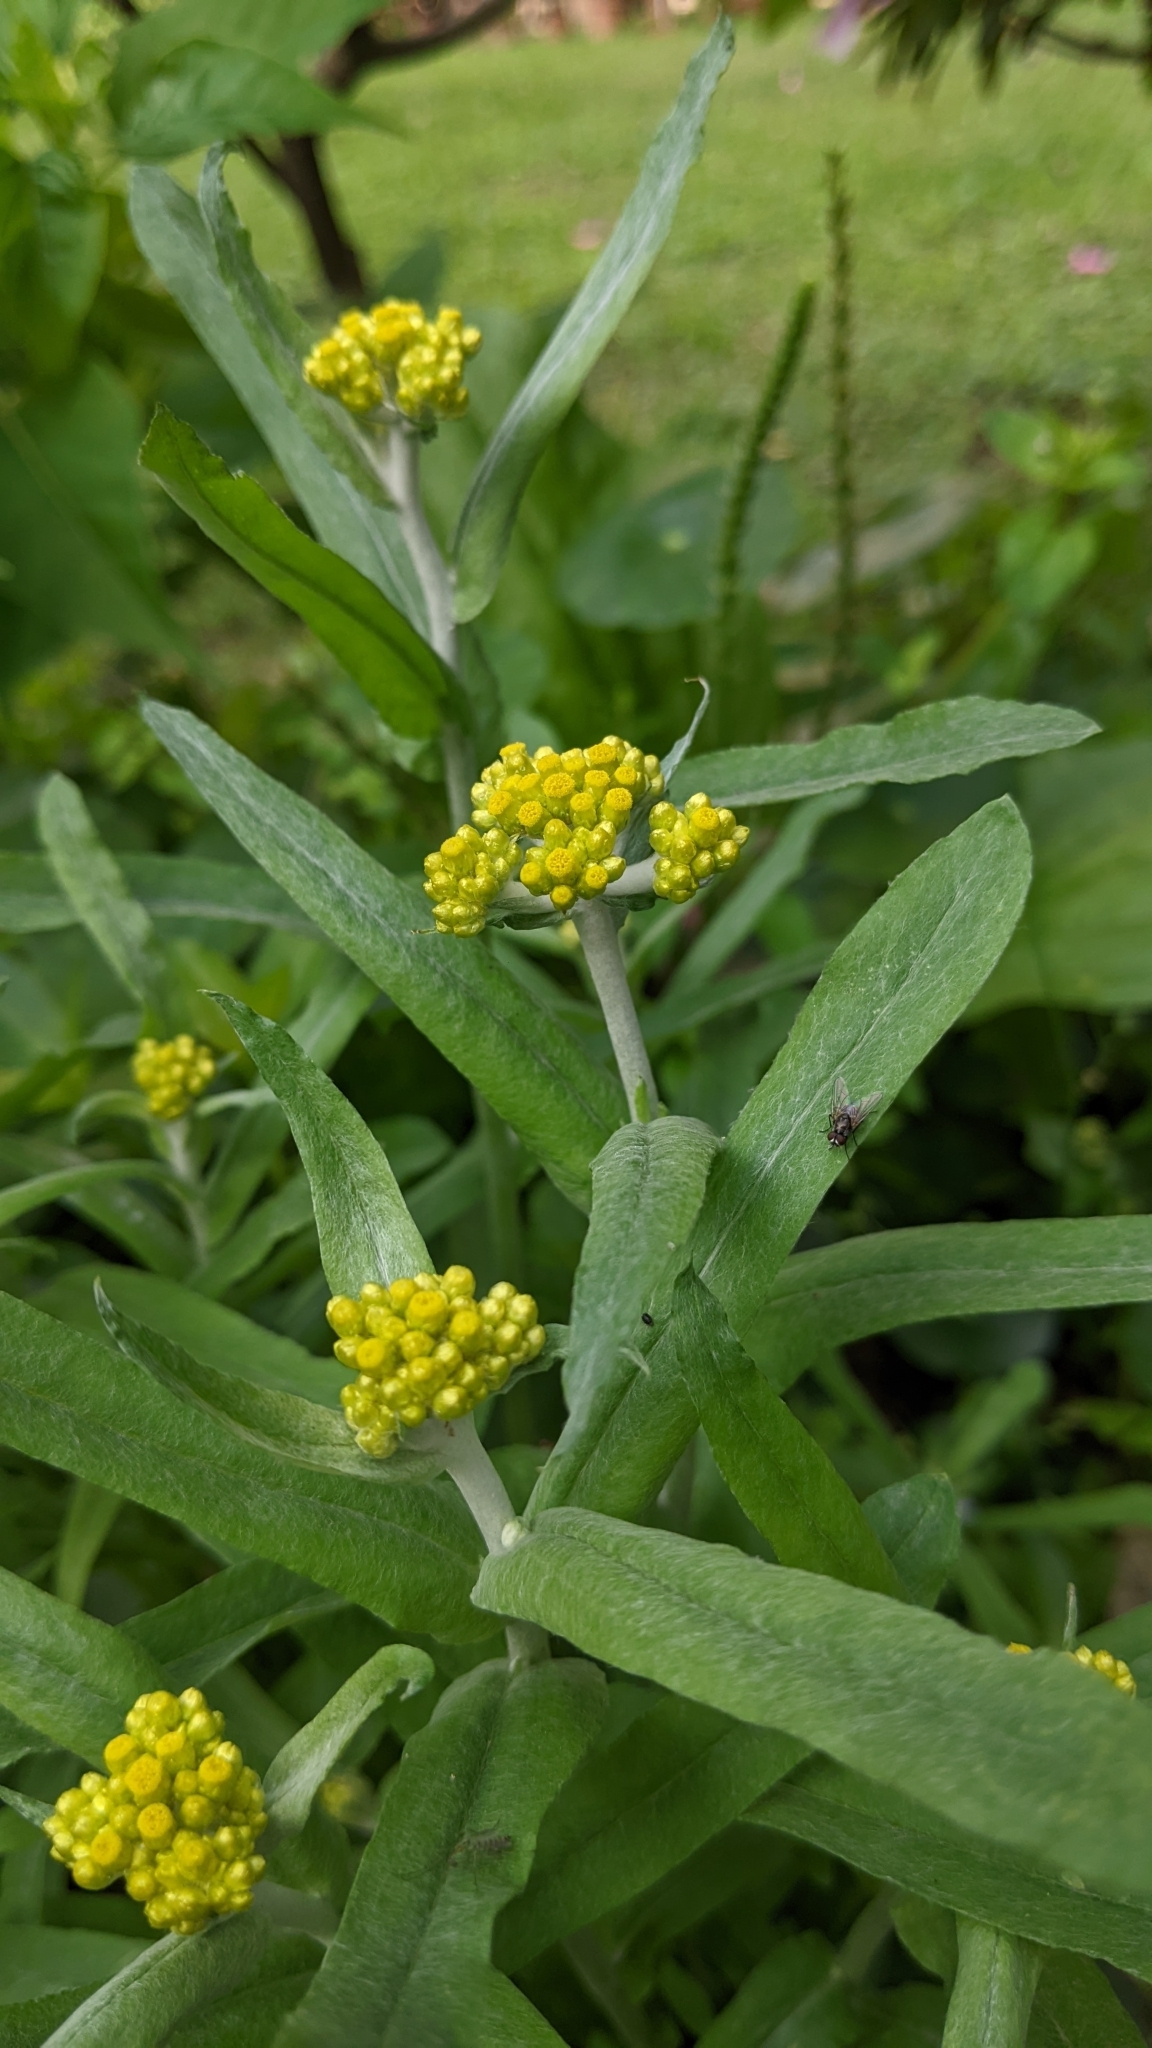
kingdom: Plantae
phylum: Tracheophyta
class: Magnoliopsida
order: Asterales
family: Asteraceae
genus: Pseudognaphalium
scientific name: Pseudognaphalium affine
